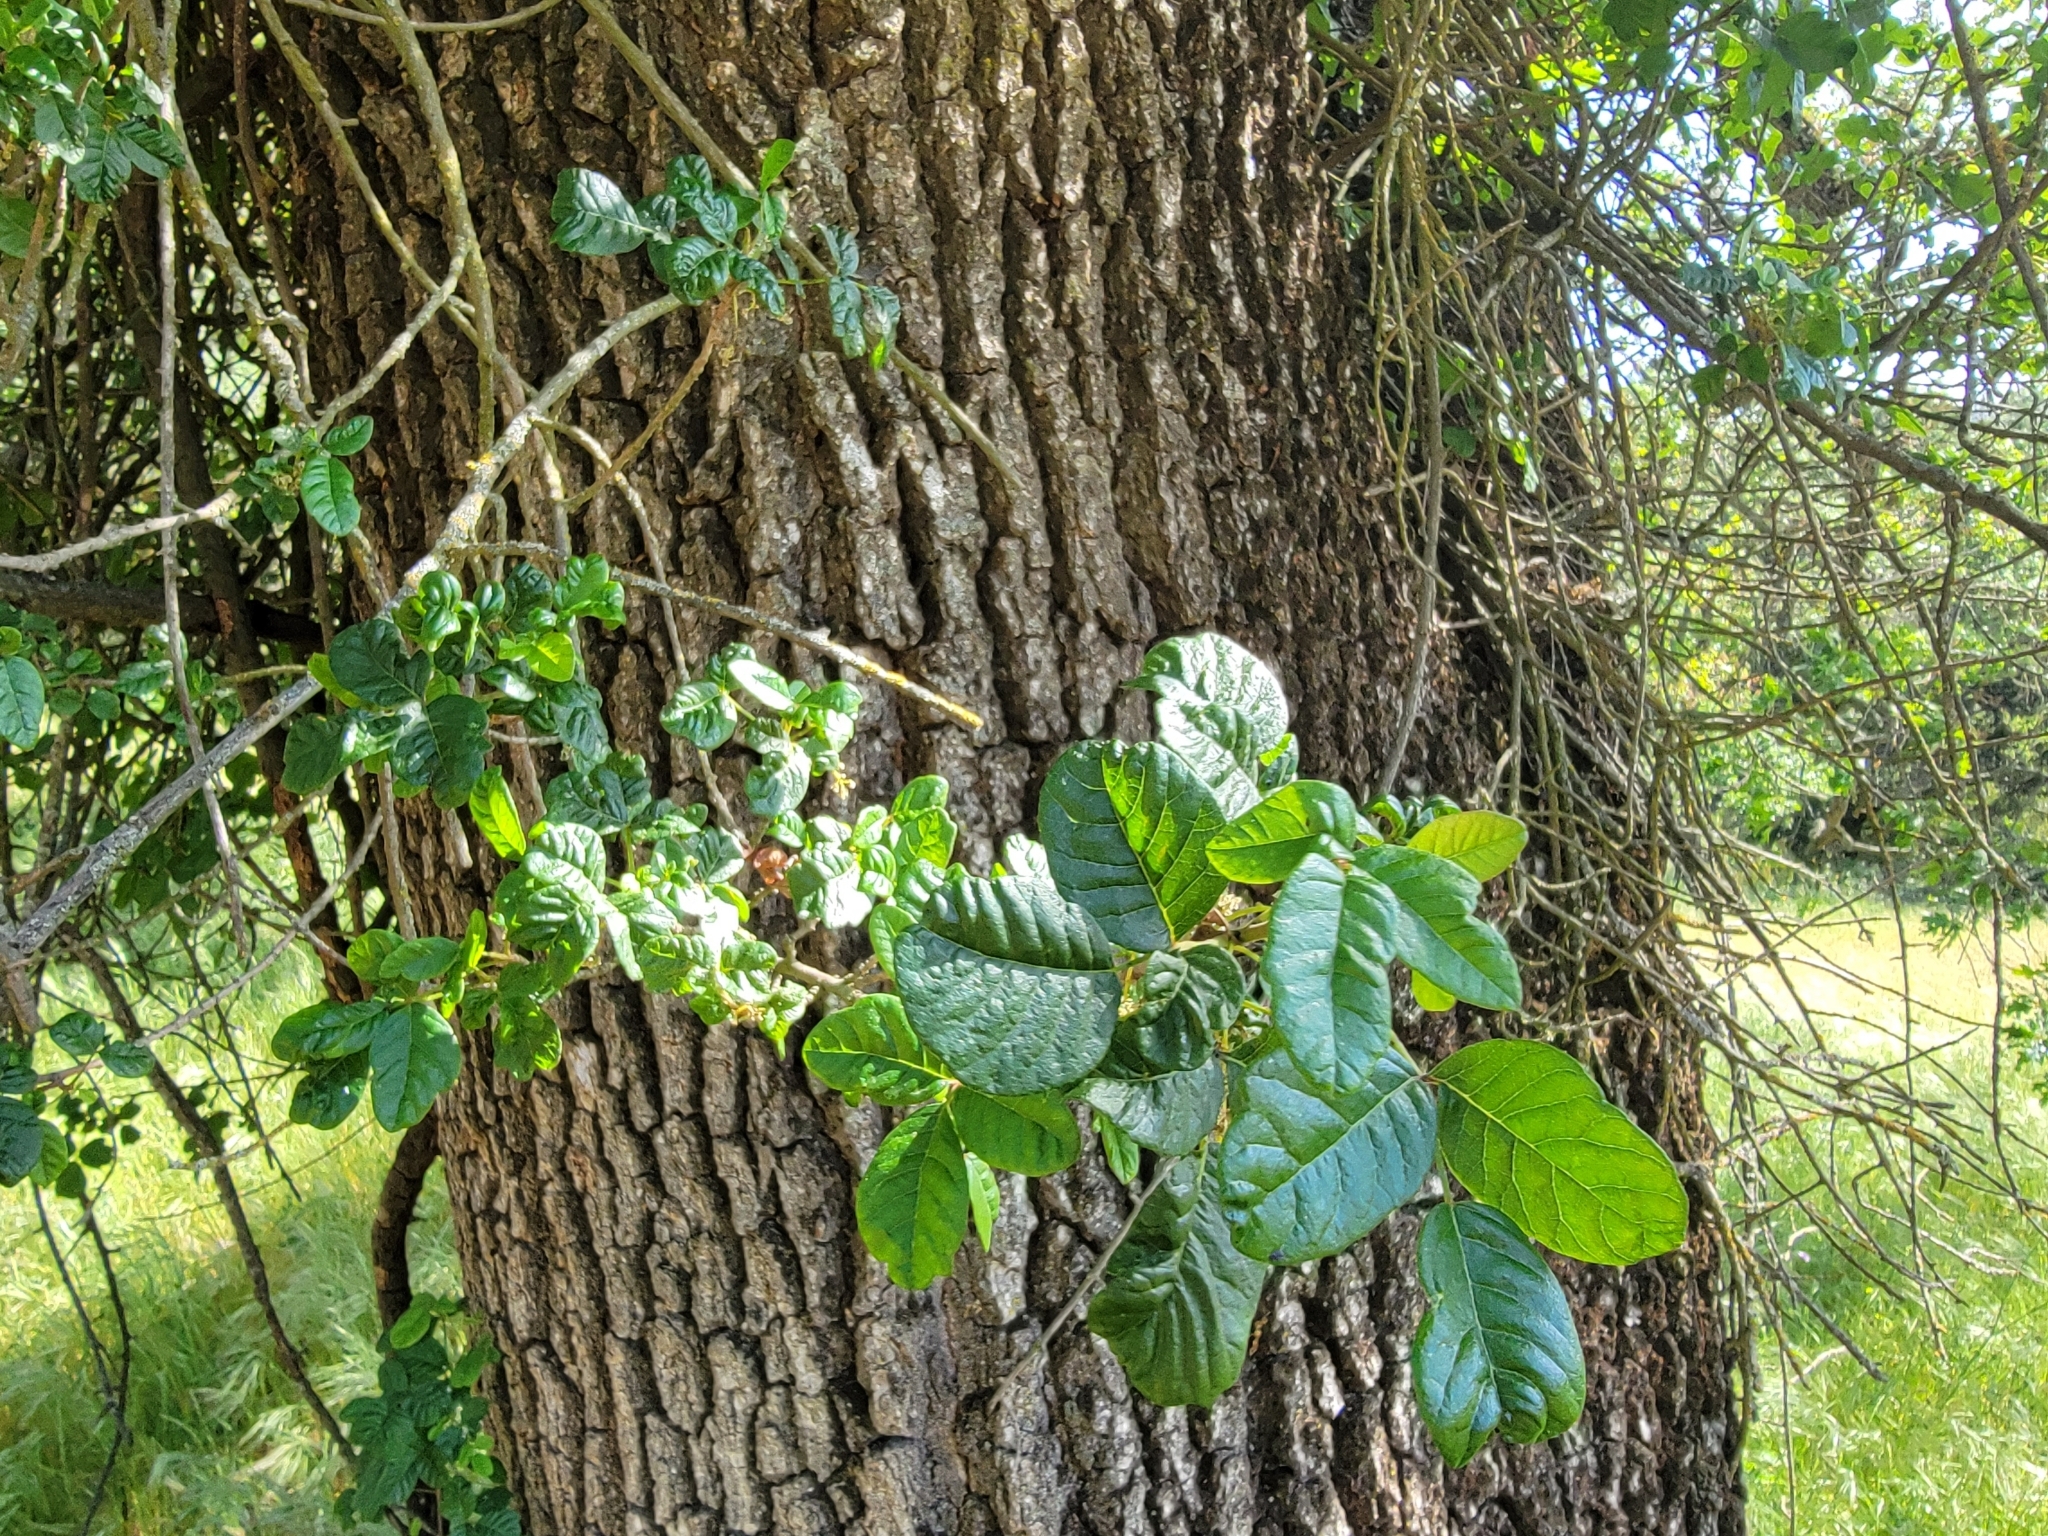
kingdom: Plantae
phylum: Tracheophyta
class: Magnoliopsida
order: Sapindales
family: Anacardiaceae
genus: Toxicodendron
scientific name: Toxicodendron diversilobum
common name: Pacific poison-oak
